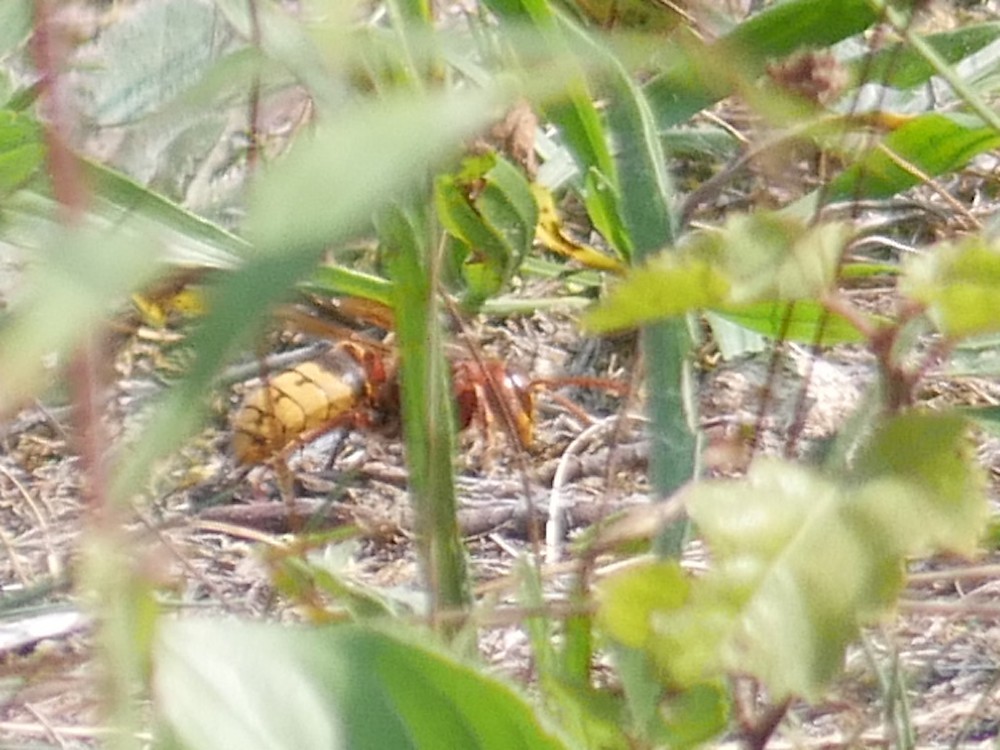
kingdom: Animalia
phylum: Arthropoda
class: Insecta
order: Hymenoptera
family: Vespidae
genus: Vespa
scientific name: Vespa crabro
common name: Hornet
